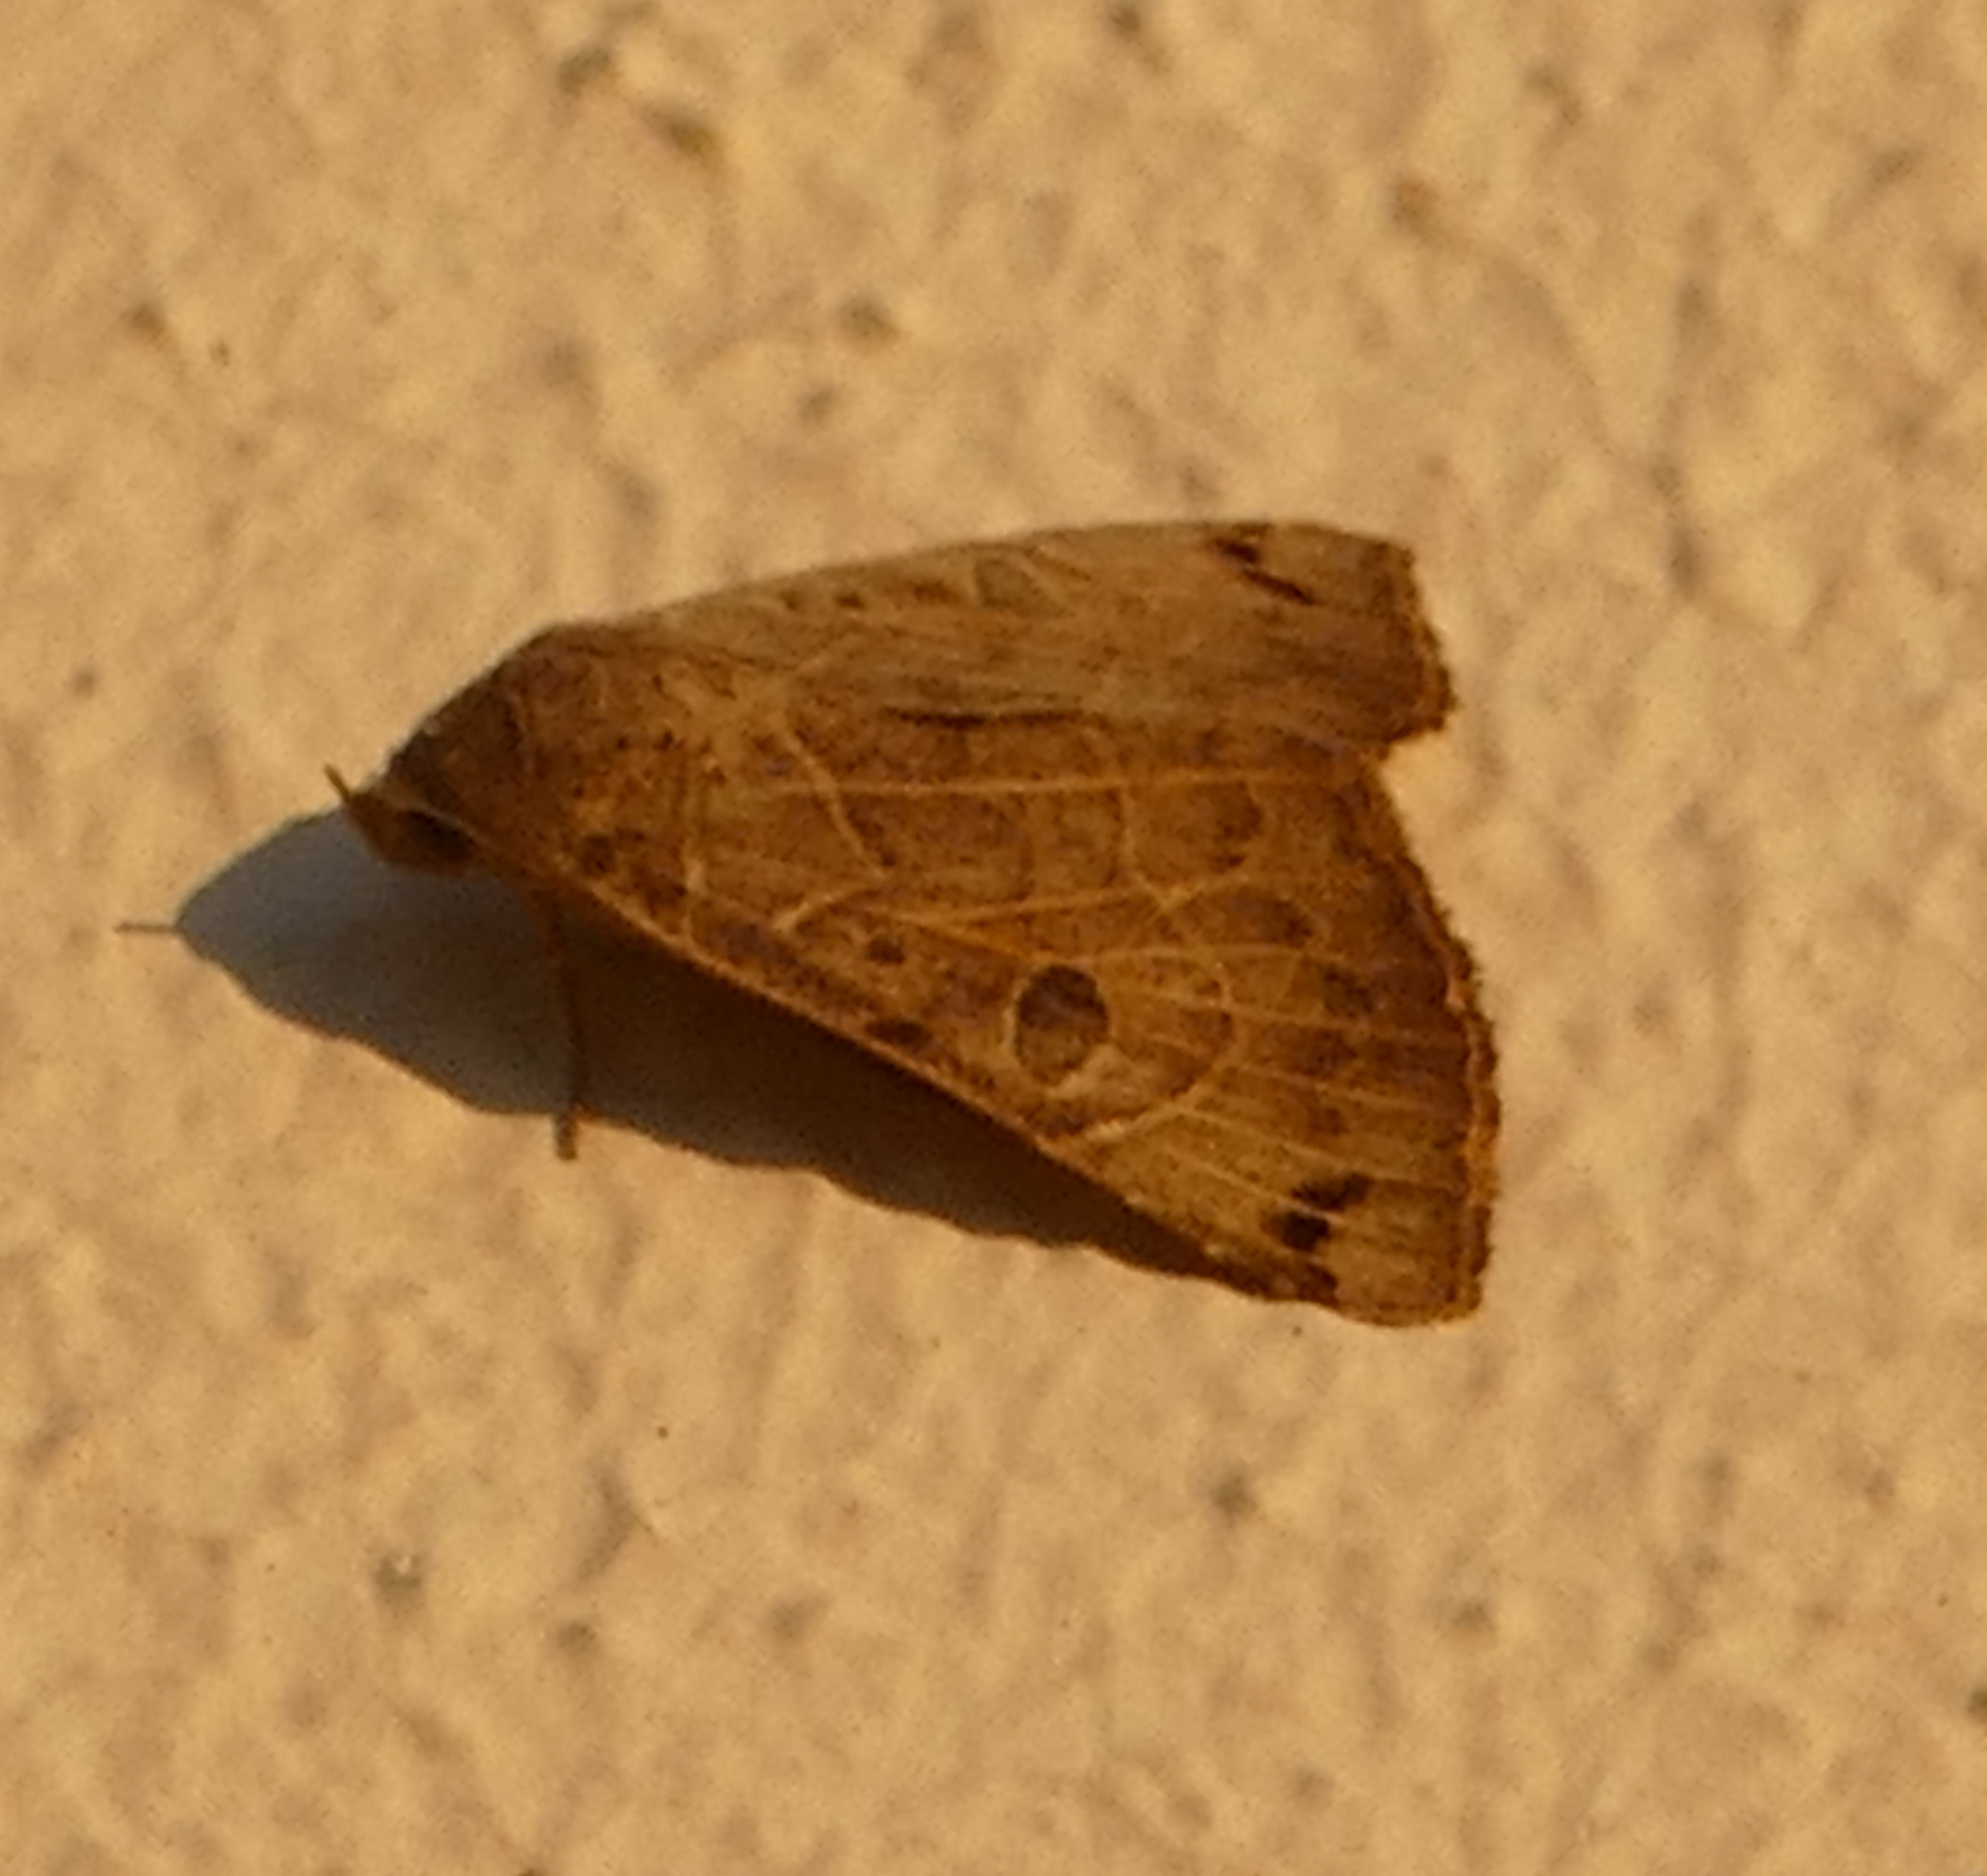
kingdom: Animalia
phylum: Arthropoda
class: Insecta
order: Lepidoptera
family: Erebidae
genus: Isogona
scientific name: Isogona scindens
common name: Owlet moth
